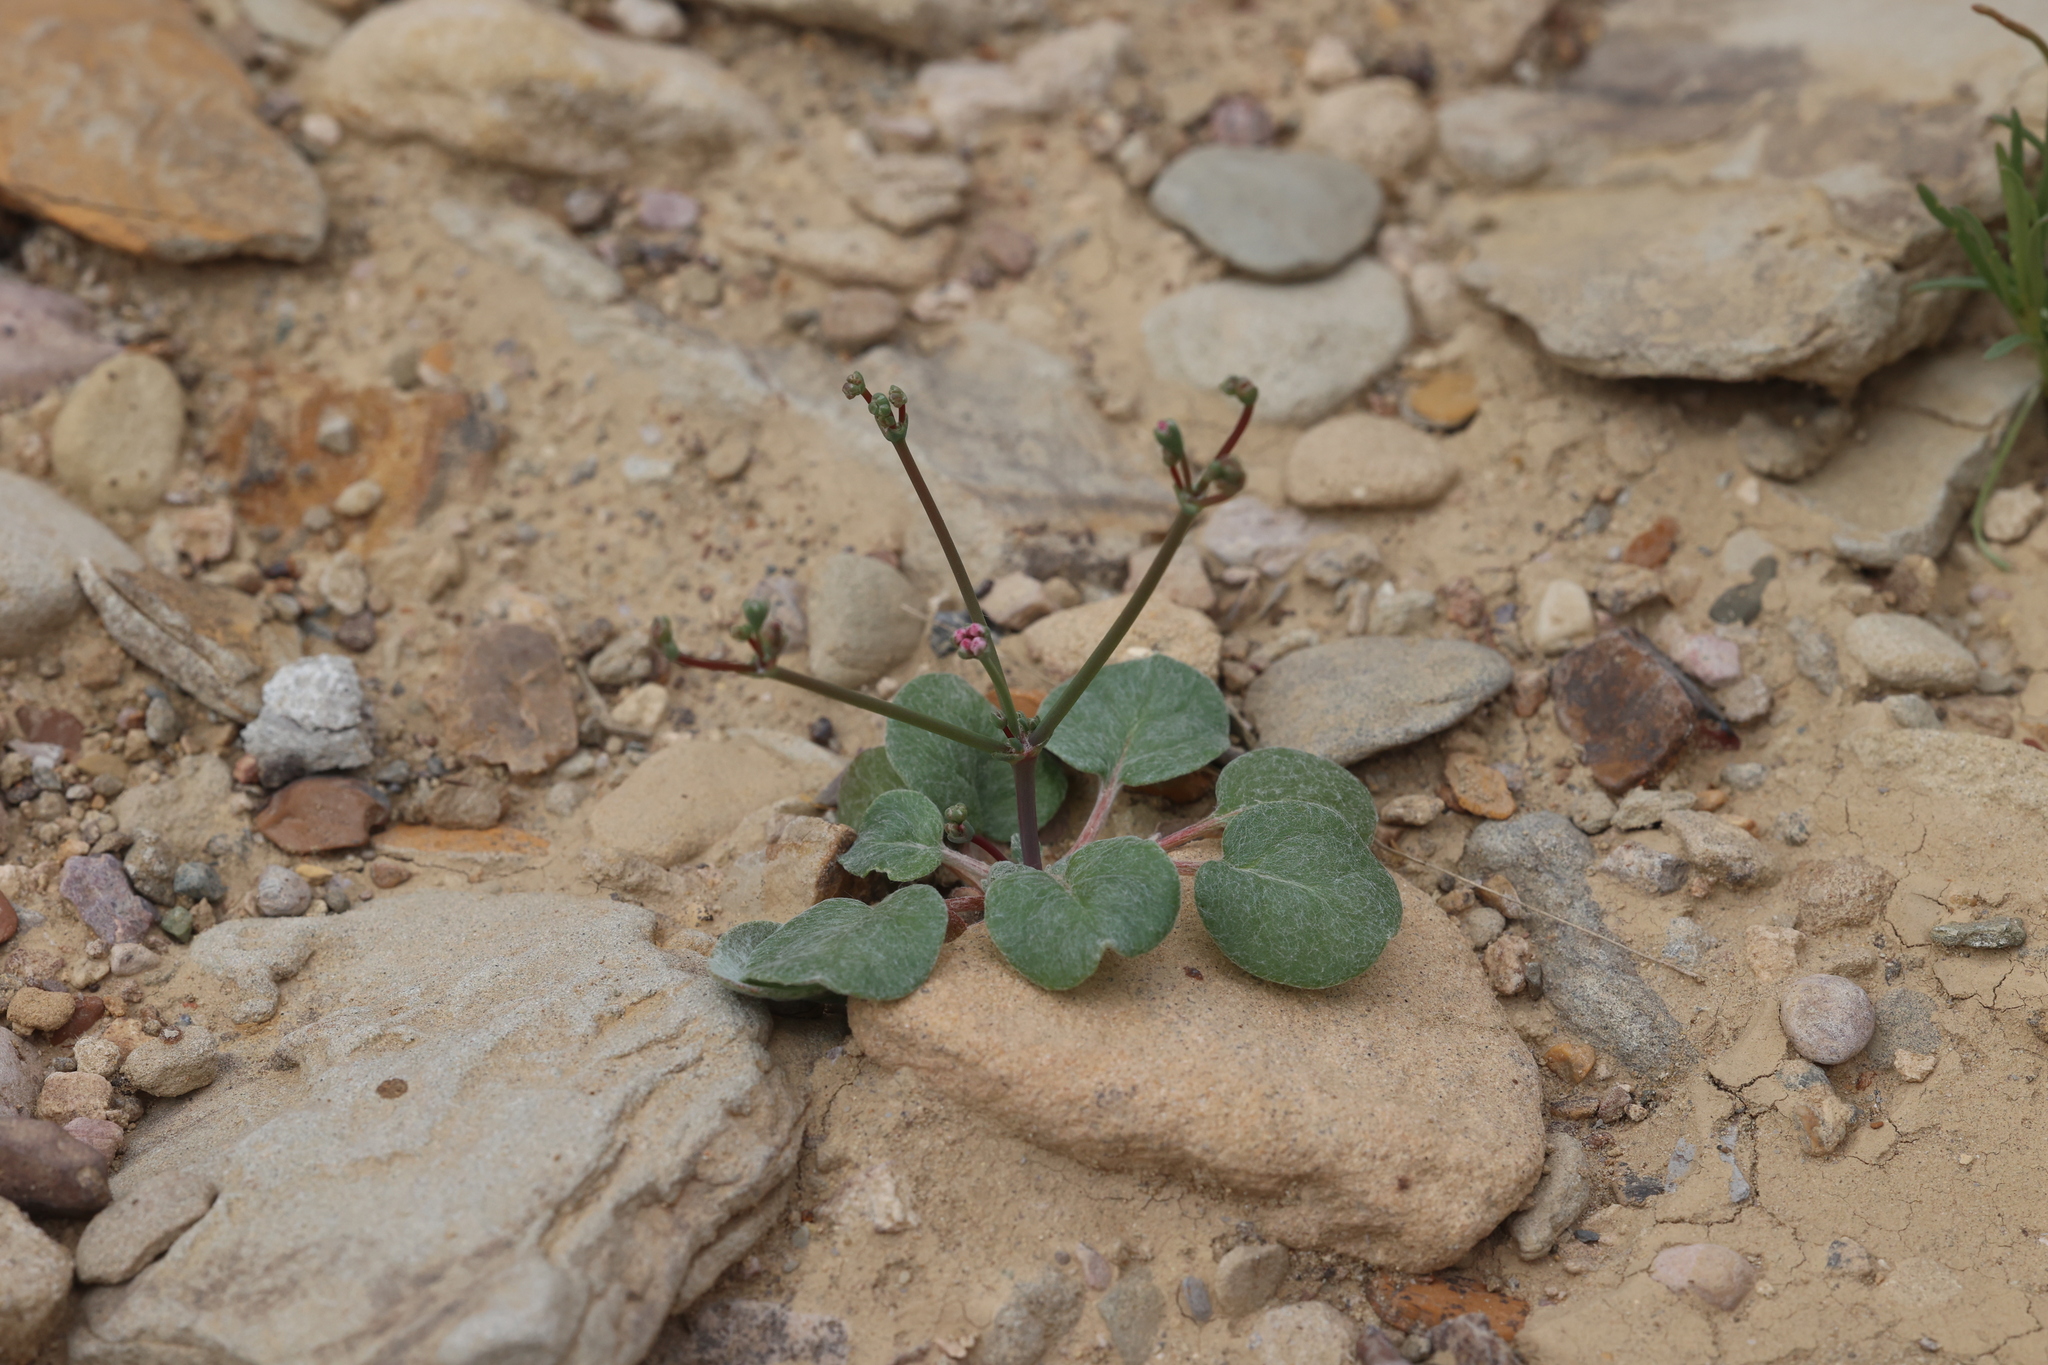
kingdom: Plantae
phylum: Tracheophyta
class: Magnoliopsida
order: Caryophyllales
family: Polygonaceae
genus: Eriogonum
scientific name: Eriogonum rotundifolium
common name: Round-leaf wild buckwheat
